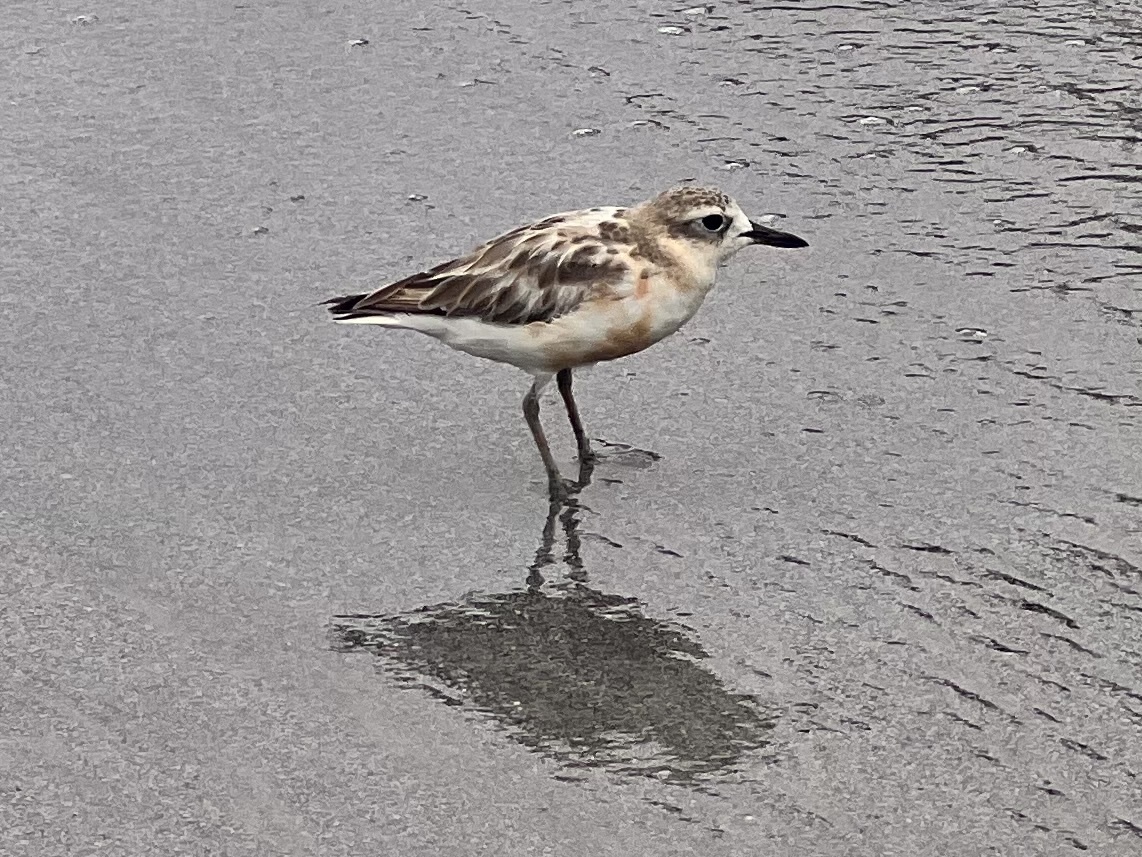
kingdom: Animalia
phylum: Chordata
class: Aves
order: Charadriiformes
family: Charadriidae
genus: Anarhynchus
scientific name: Anarhynchus
